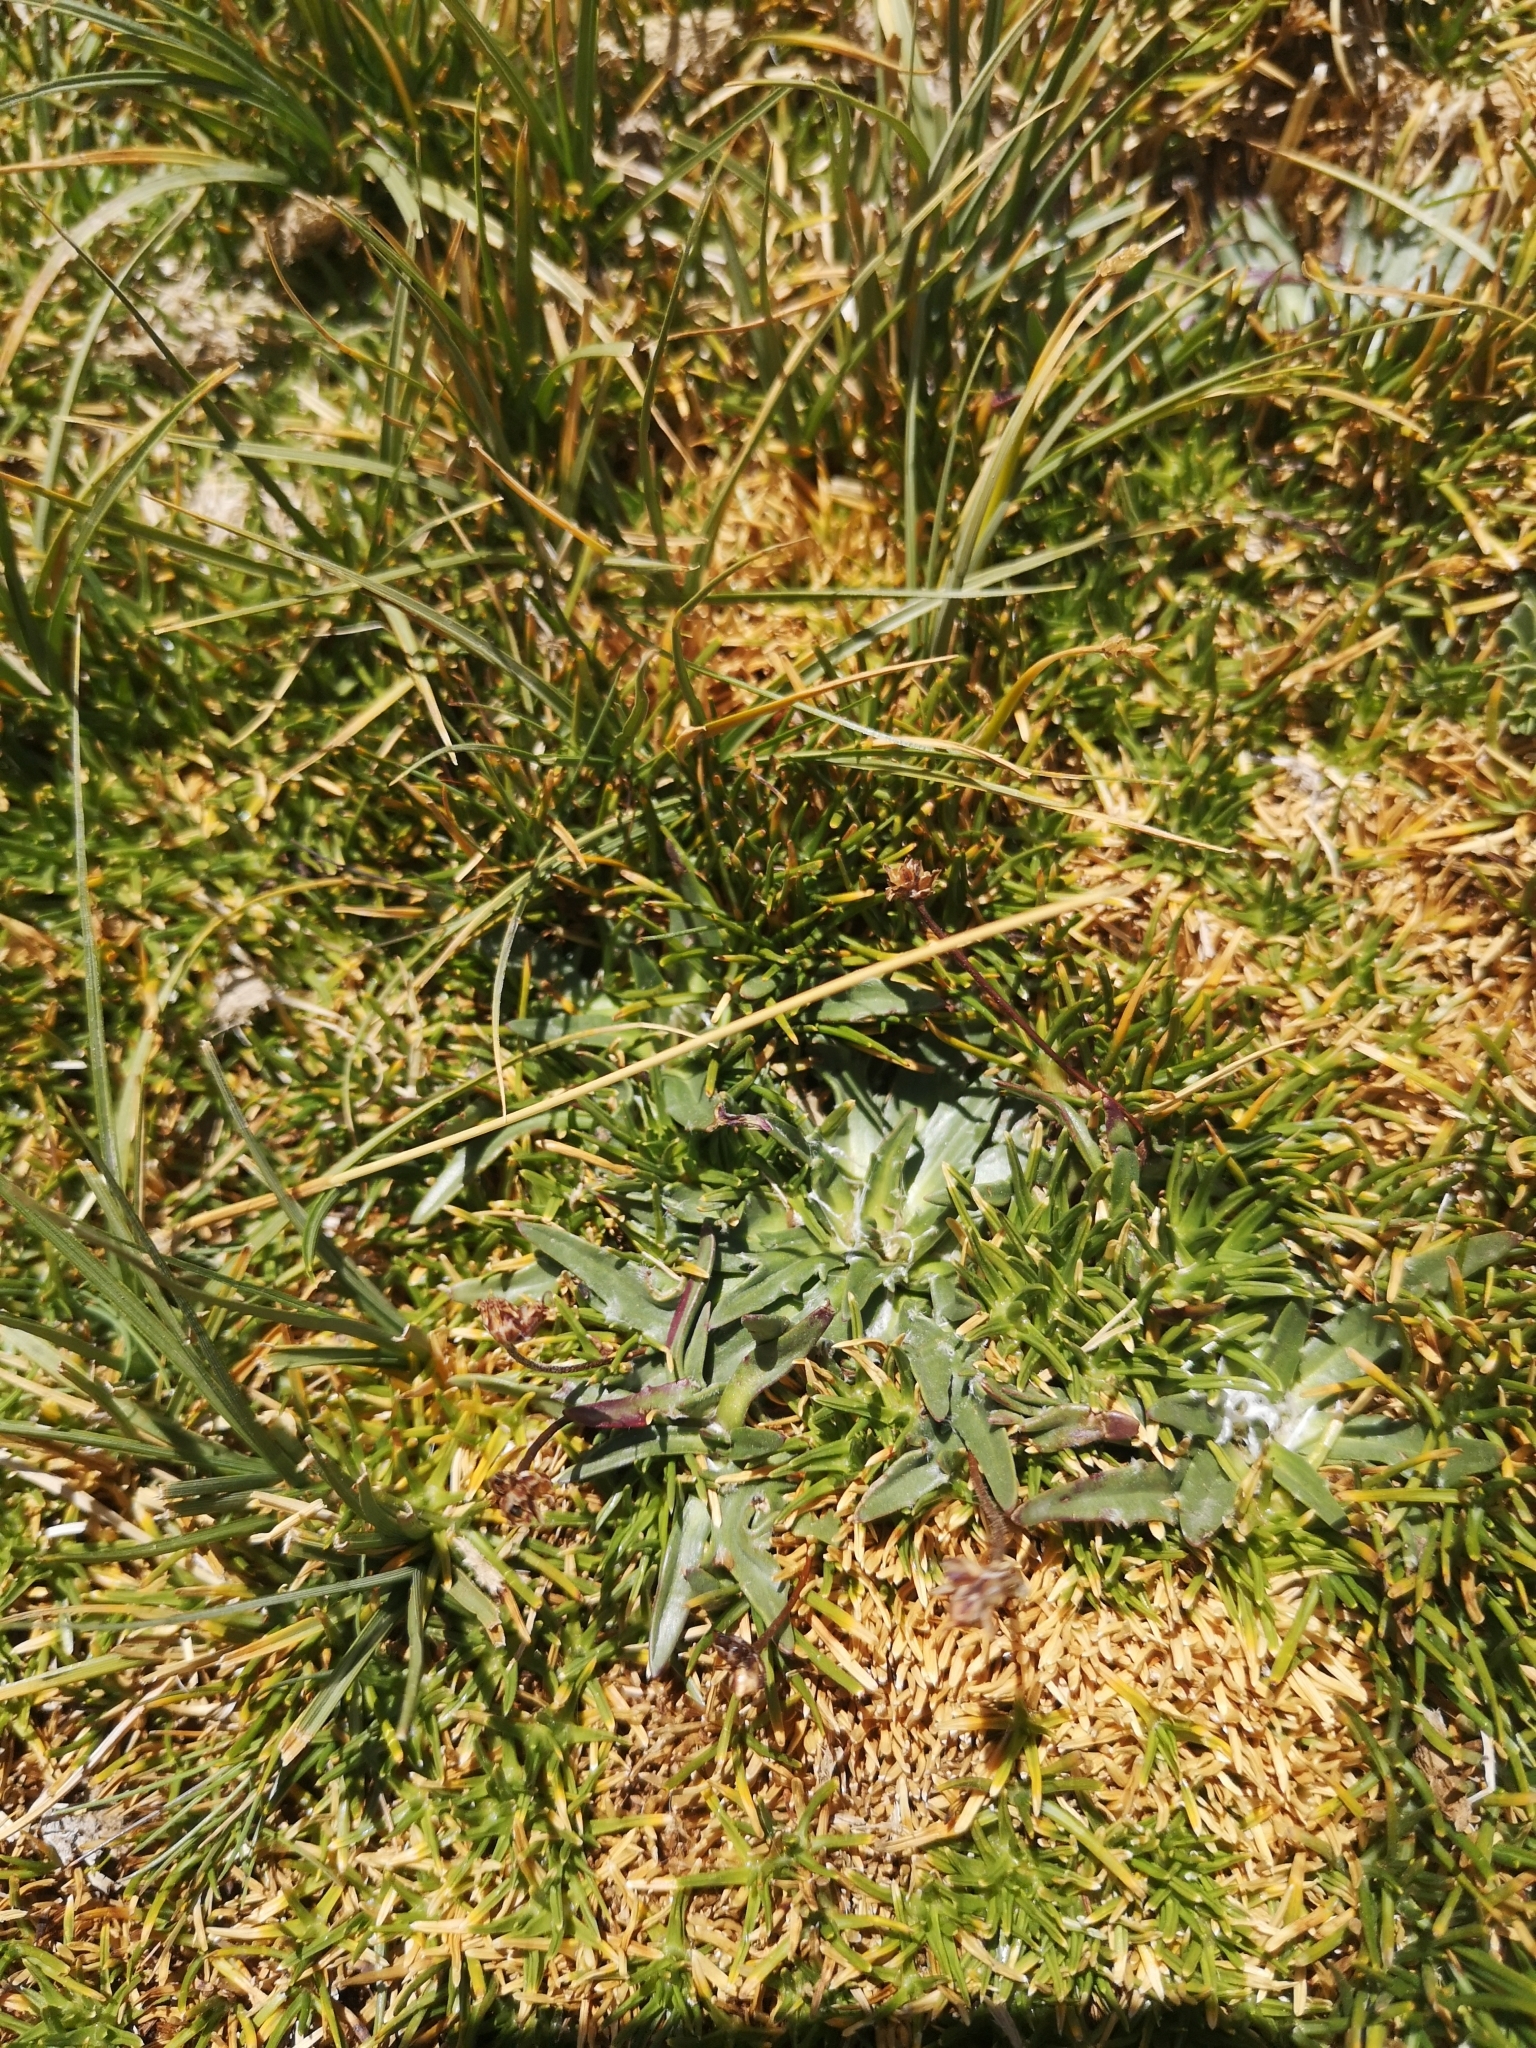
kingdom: Plantae
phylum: Tracheophyta
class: Magnoliopsida
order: Lamiales
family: Plantaginaceae
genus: Plantago
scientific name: Plantago barbata
